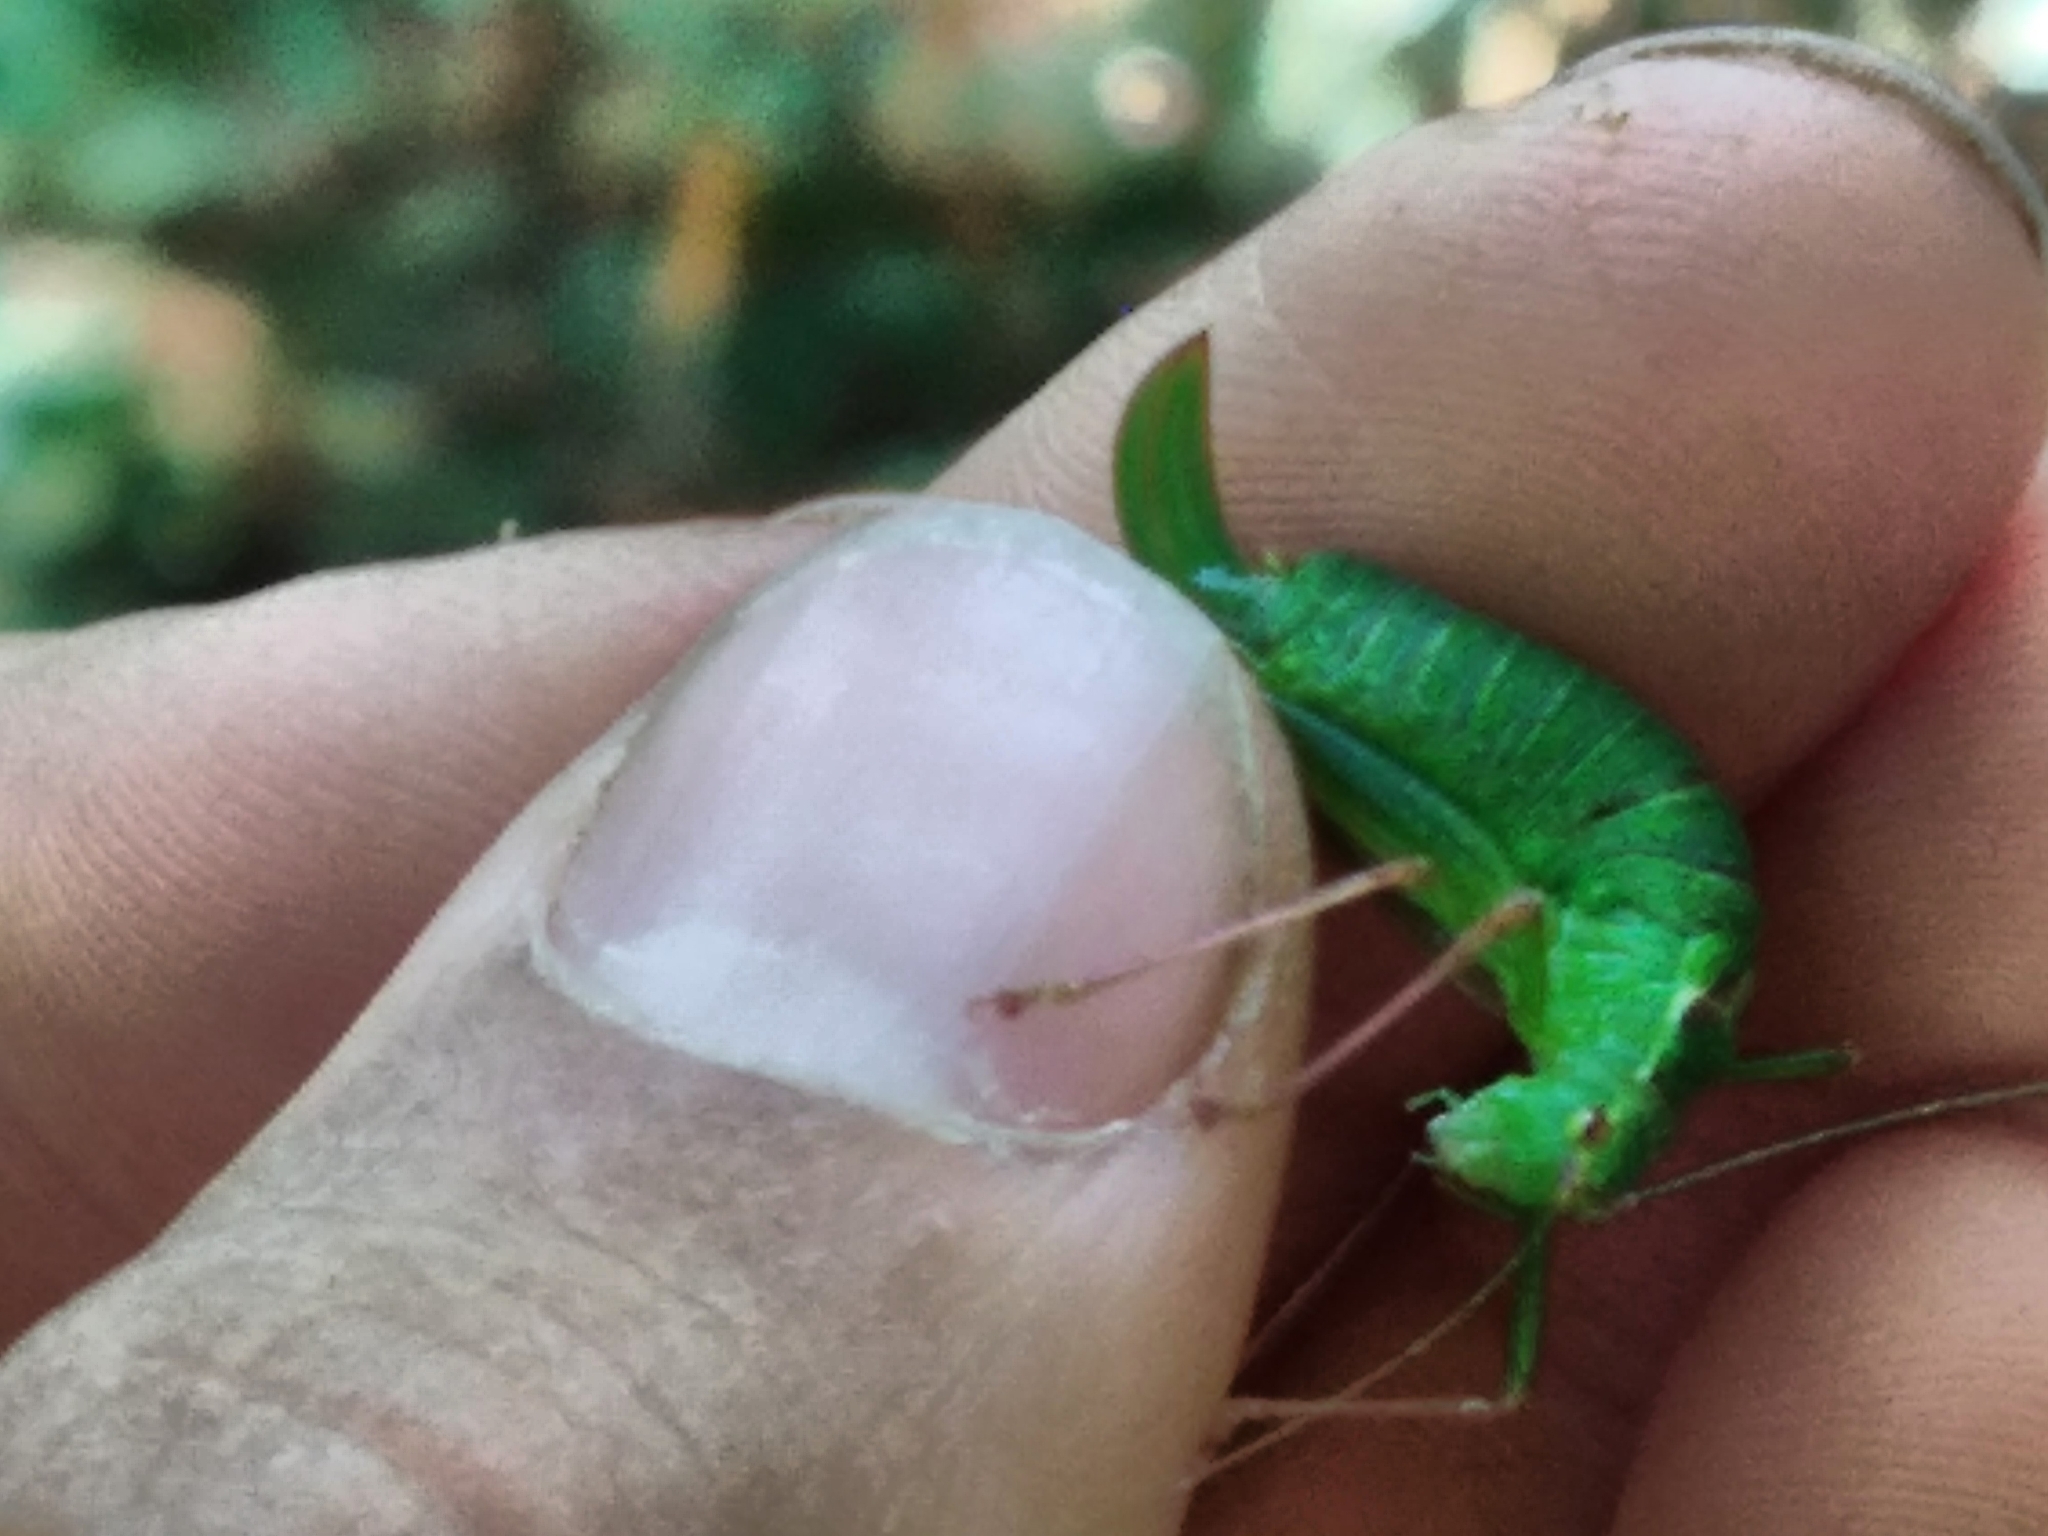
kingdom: Animalia
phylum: Arthropoda
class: Insecta
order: Orthoptera
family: Tettigoniidae
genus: Leptophyes
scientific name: Leptophyes punctatissima
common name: Speckled bush-cricket
